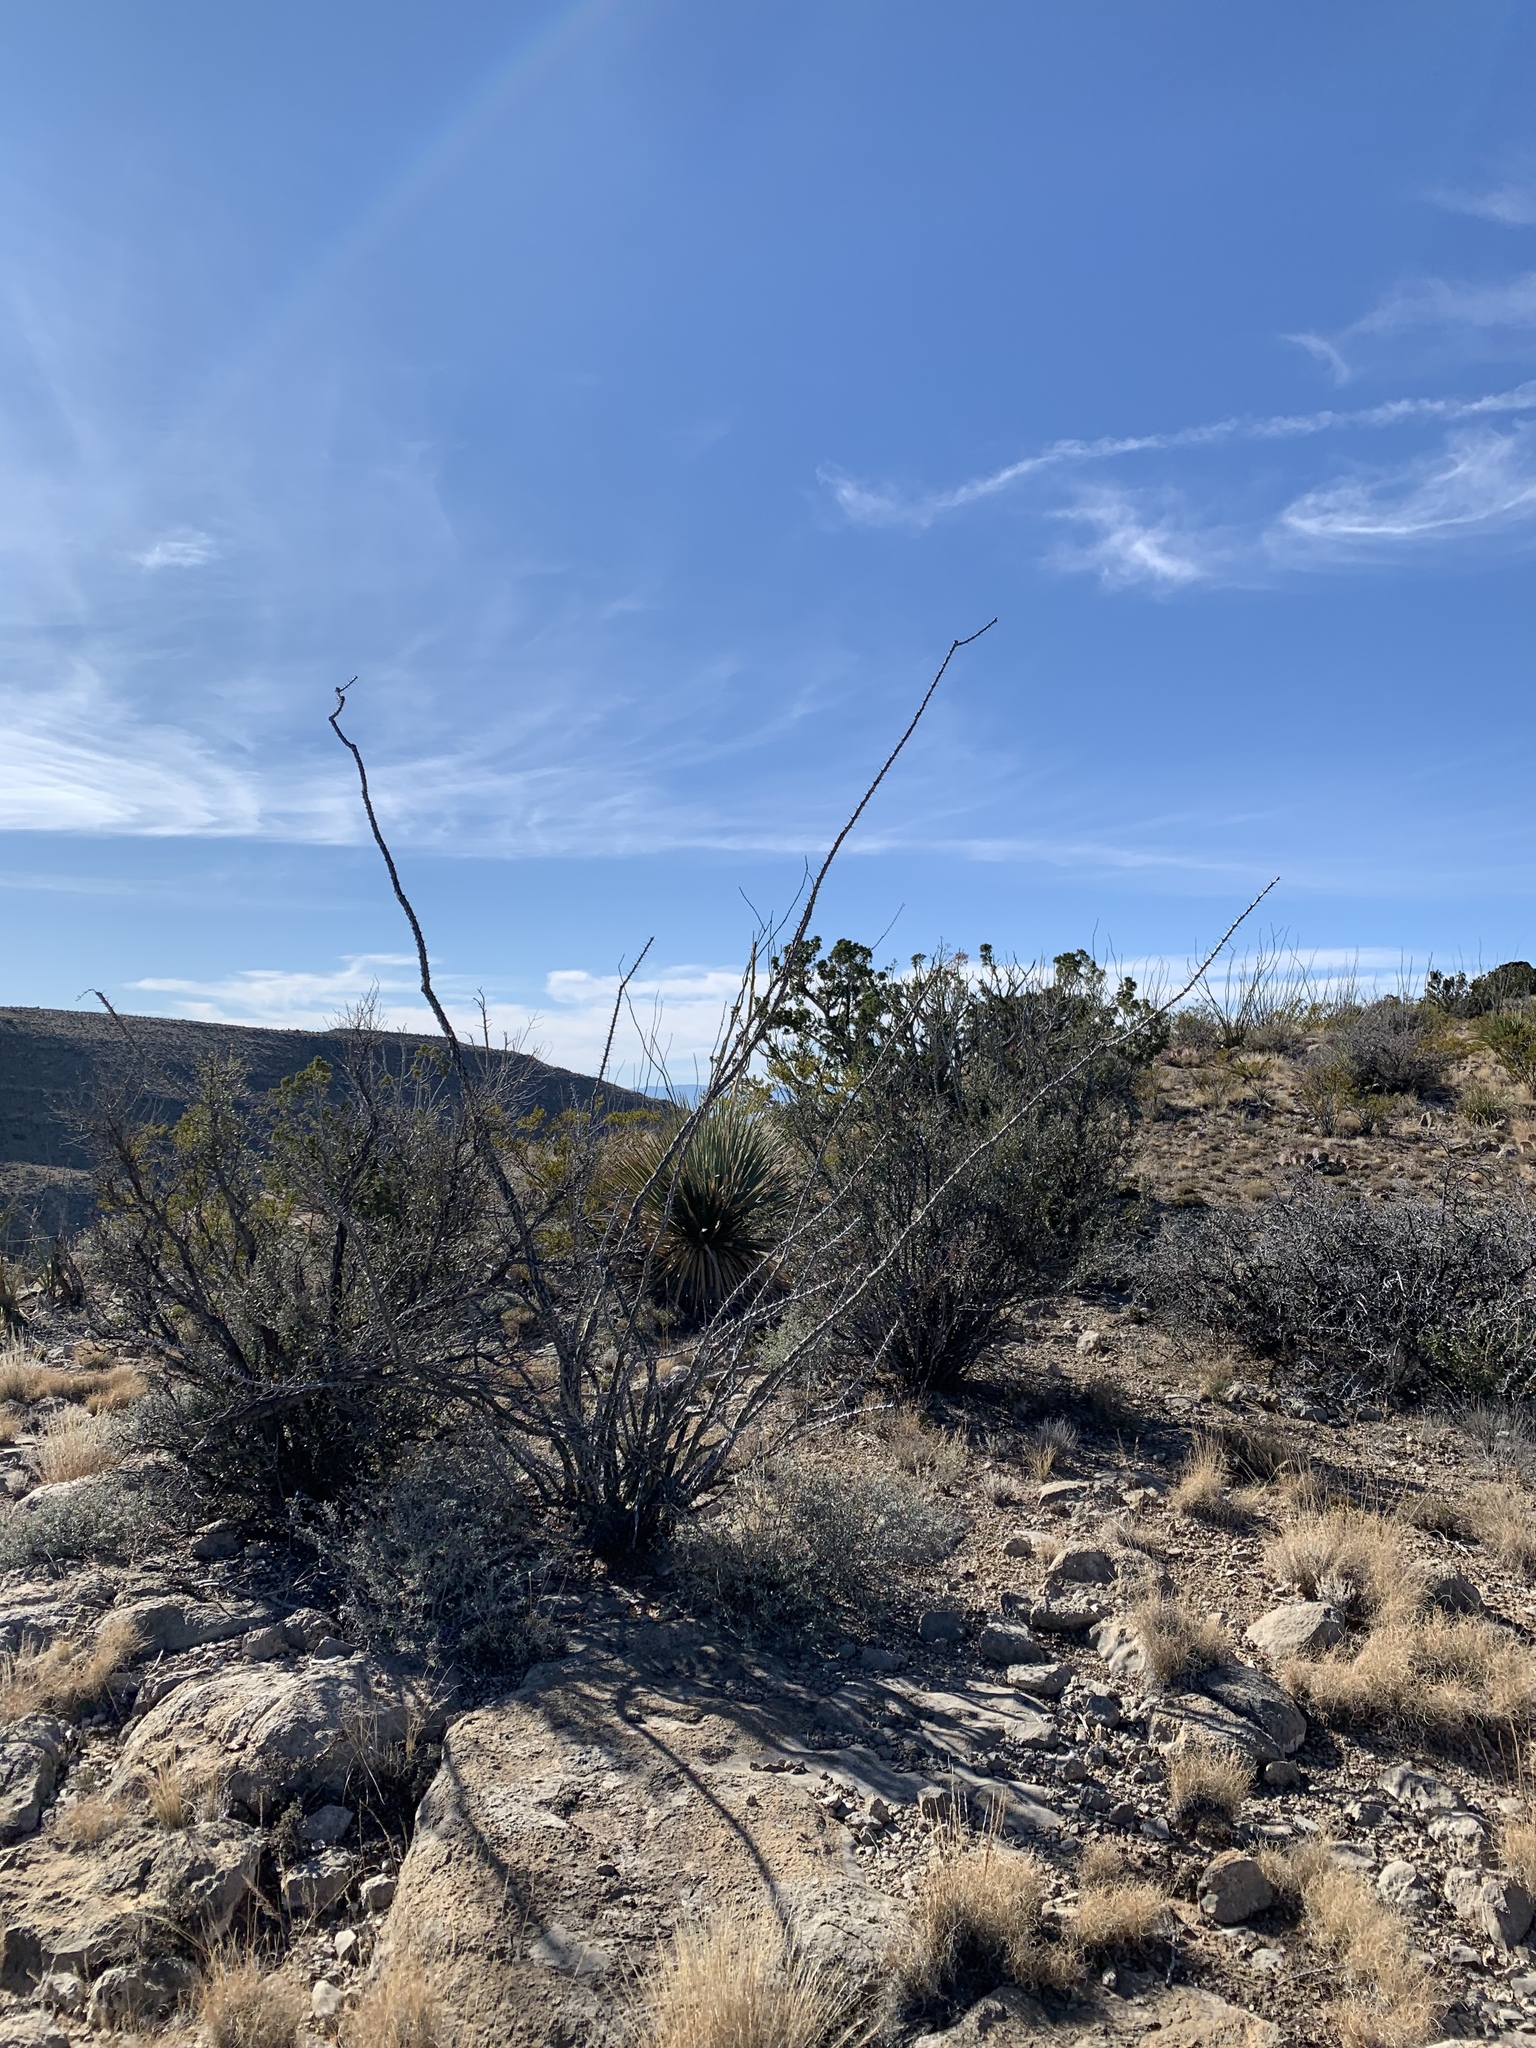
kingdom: Plantae
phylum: Tracheophyta
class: Magnoliopsida
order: Ericales
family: Fouquieriaceae
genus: Fouquieria
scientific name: Fouquieria splendens
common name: Vine-cactus
